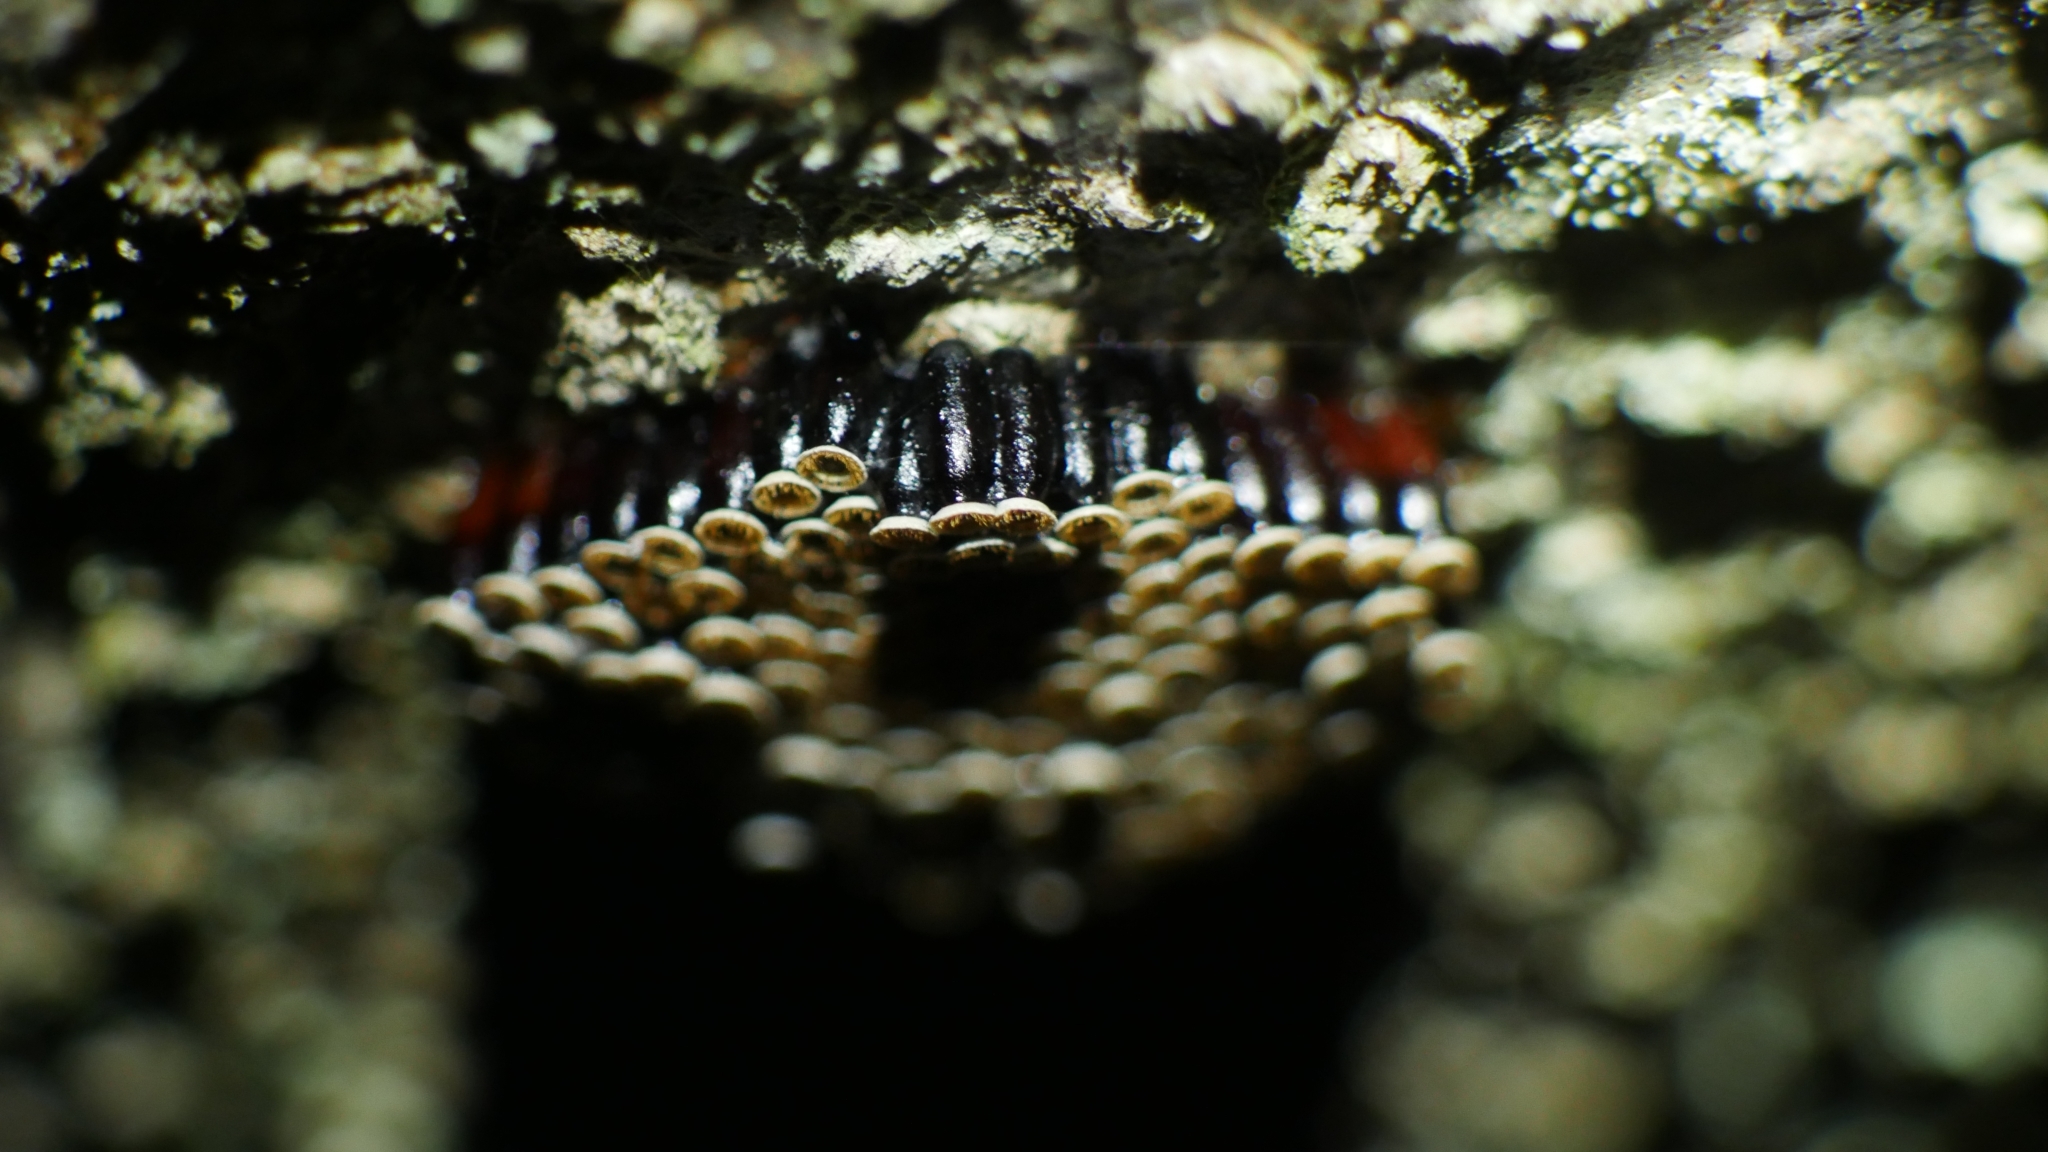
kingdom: Animalia
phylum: Arthropoda
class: Insecta
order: Hemiptera
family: Reduviidae
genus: Arilus
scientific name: Arilus cristatus
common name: North american wheel bug
